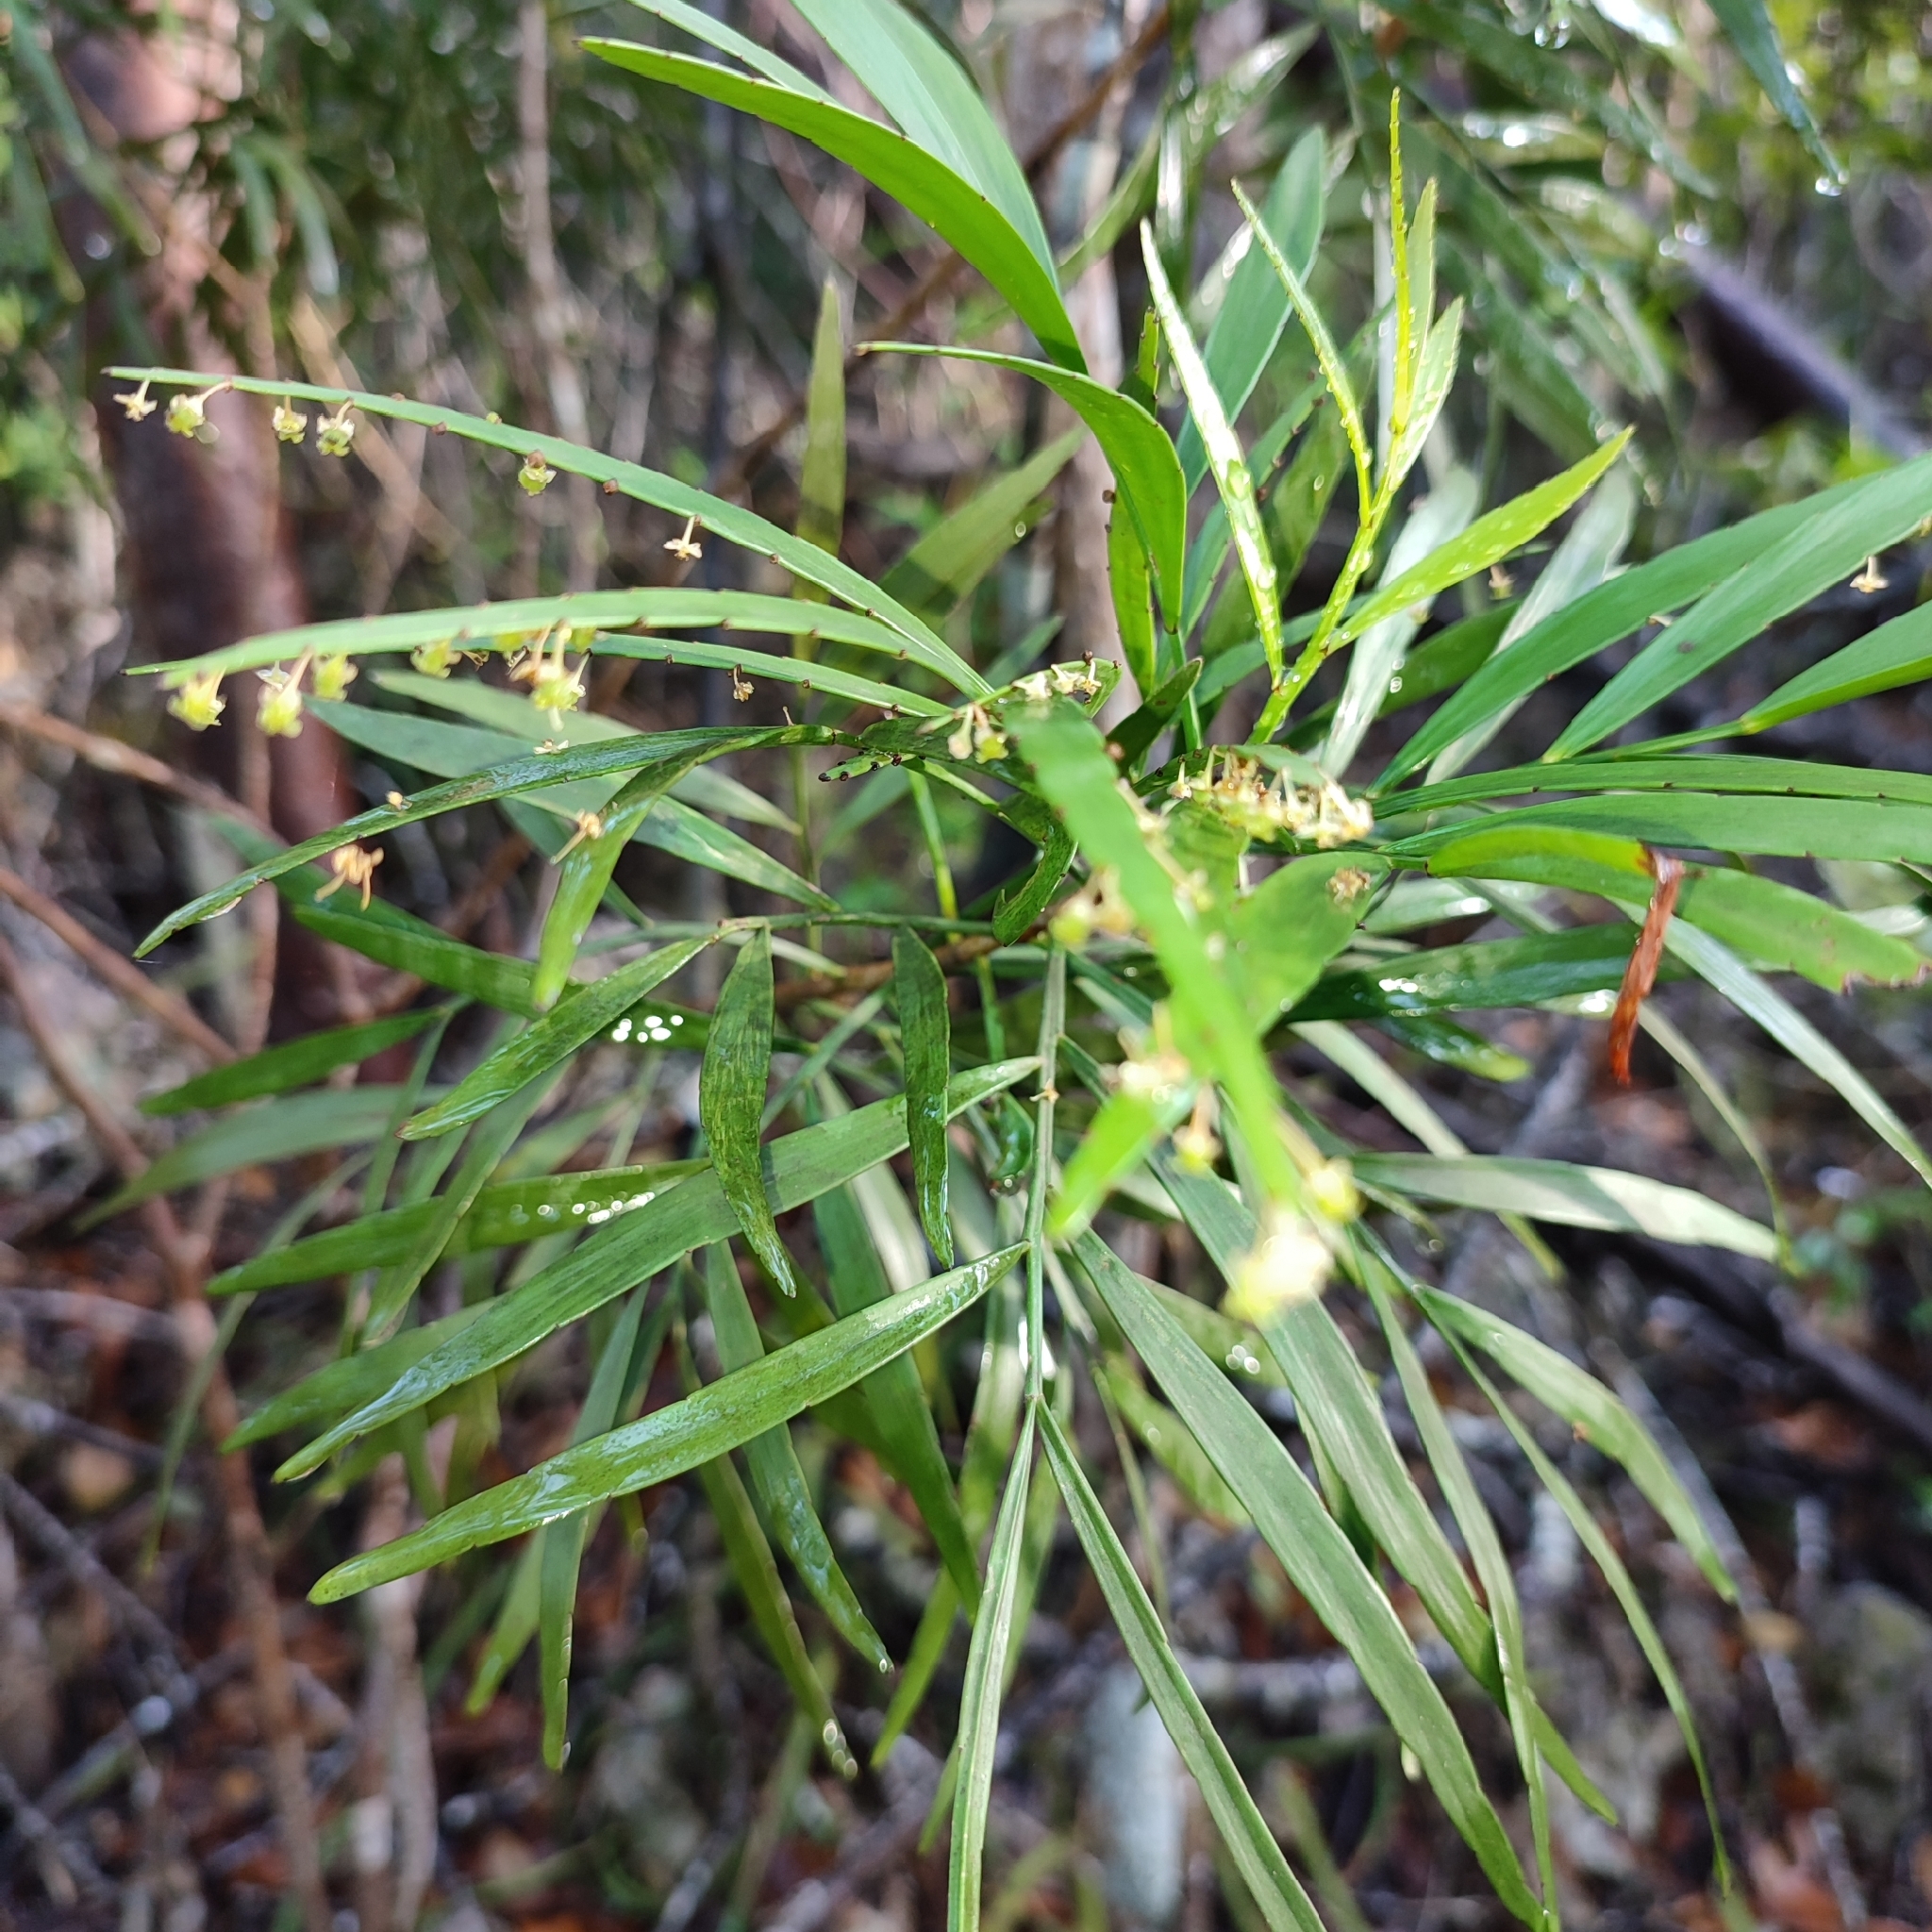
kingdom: Plantae
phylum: Tracheophyta
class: Magnoliopsida
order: Malpighiales
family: Phyllanthaceae
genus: Phyllanthus
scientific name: Phyllanthus angustifolius
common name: Foliage flower
